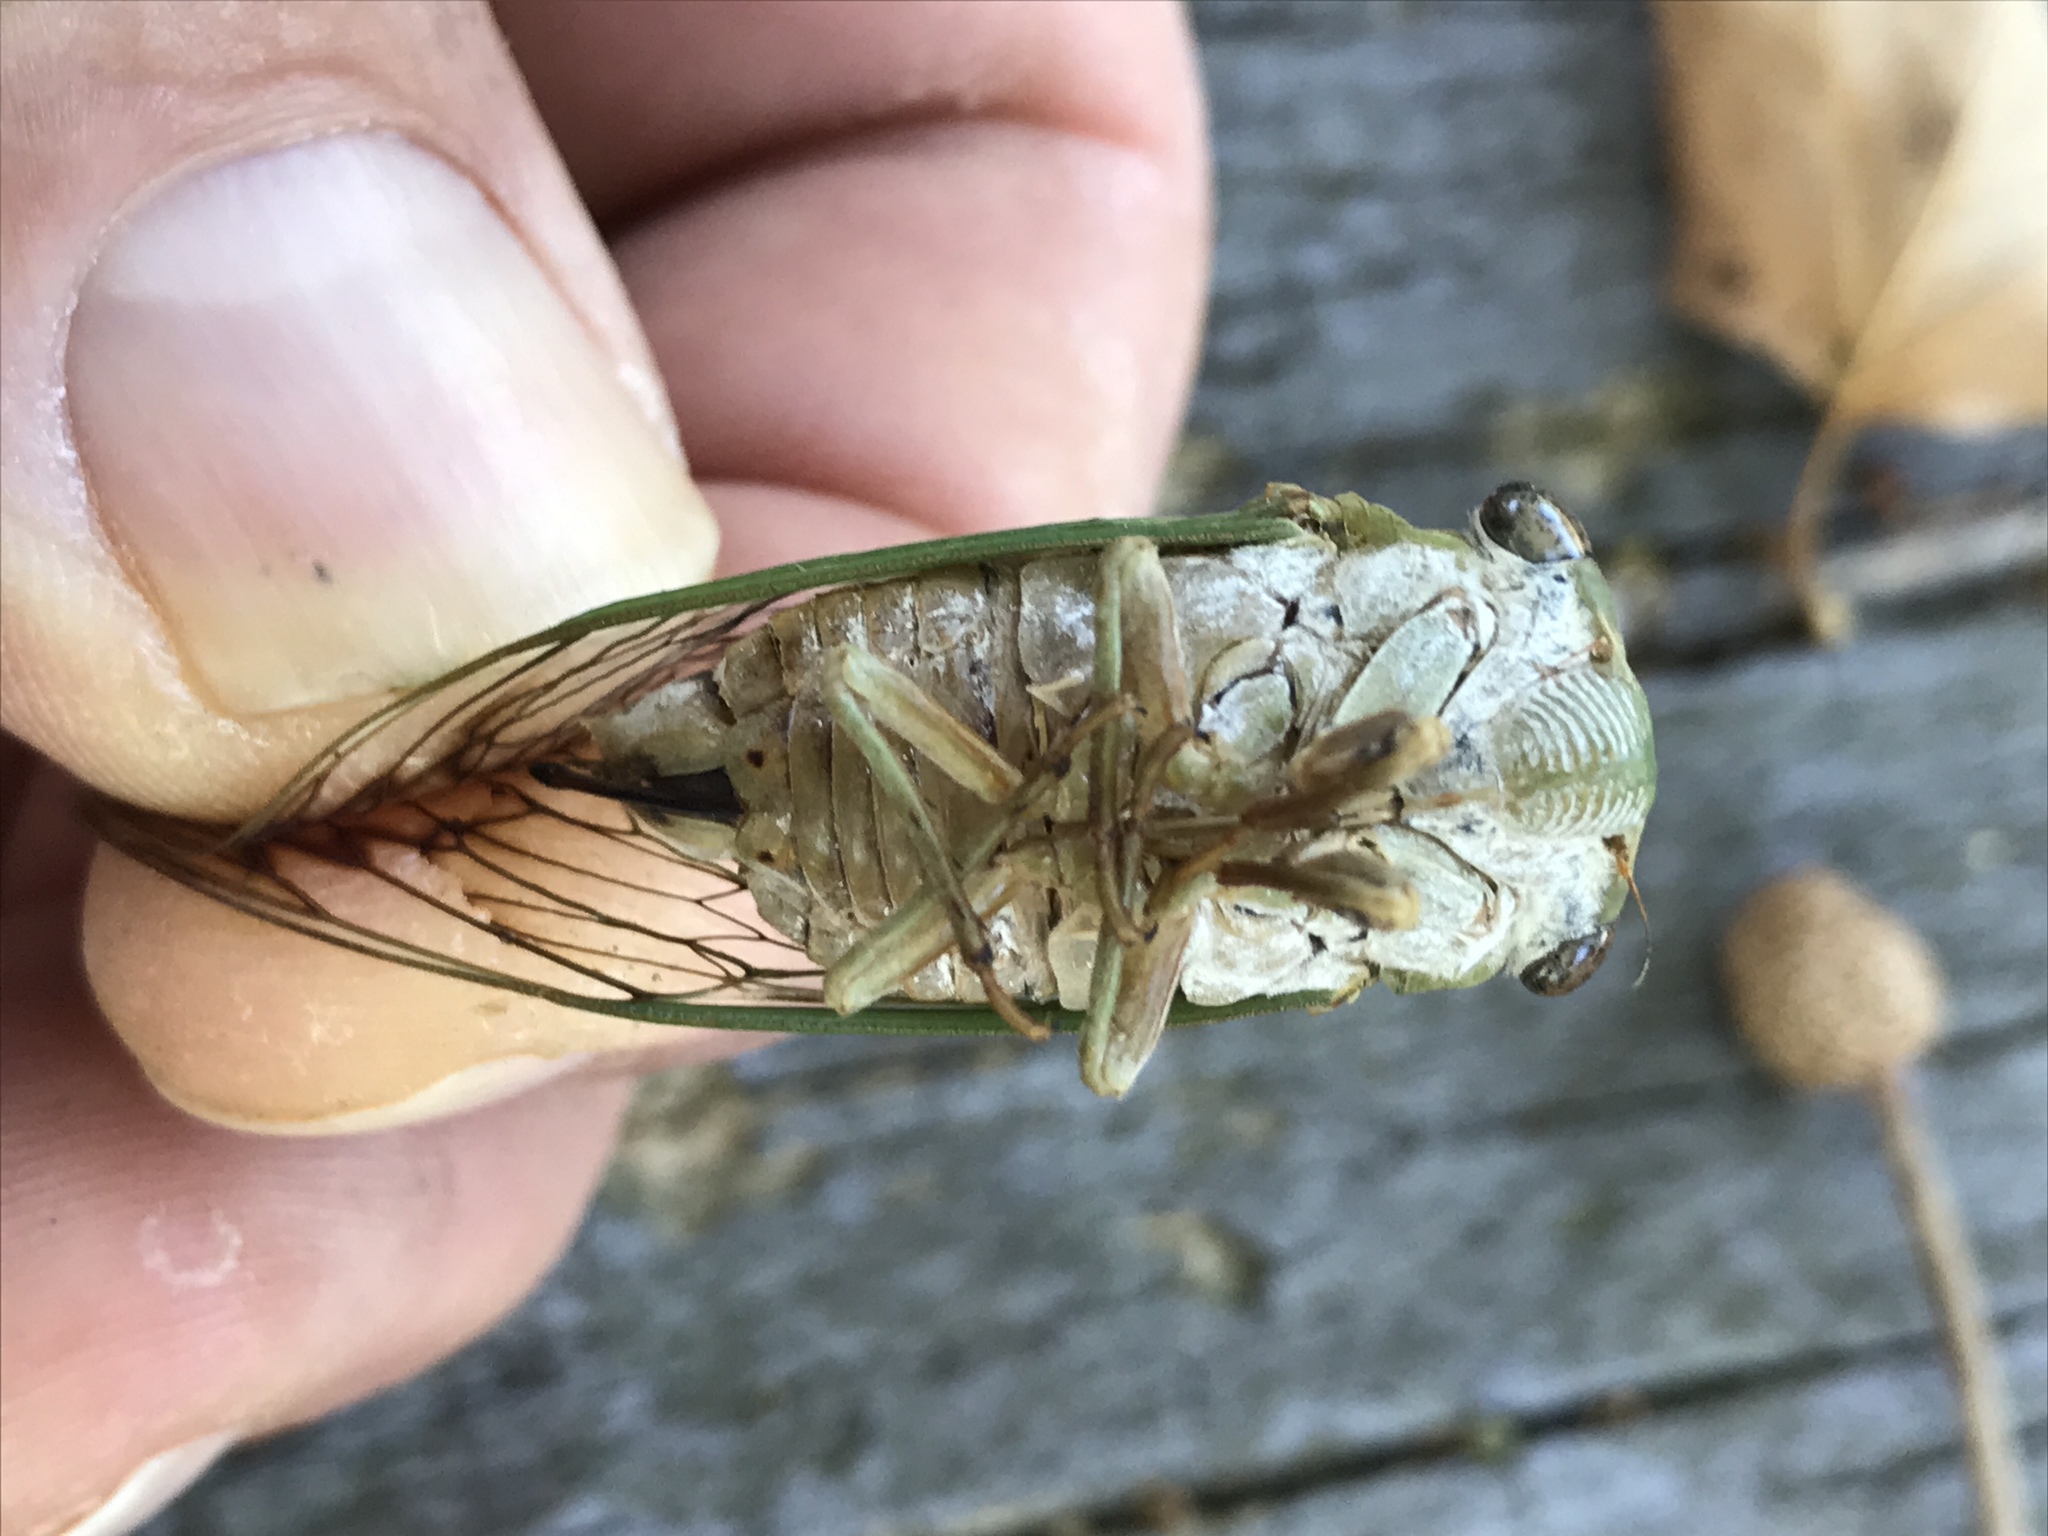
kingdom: Animalia
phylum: Arthropoda
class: Insecta
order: Hemiptera
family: Cicadidae
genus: Neotibicen
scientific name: Neotibicen superbus
